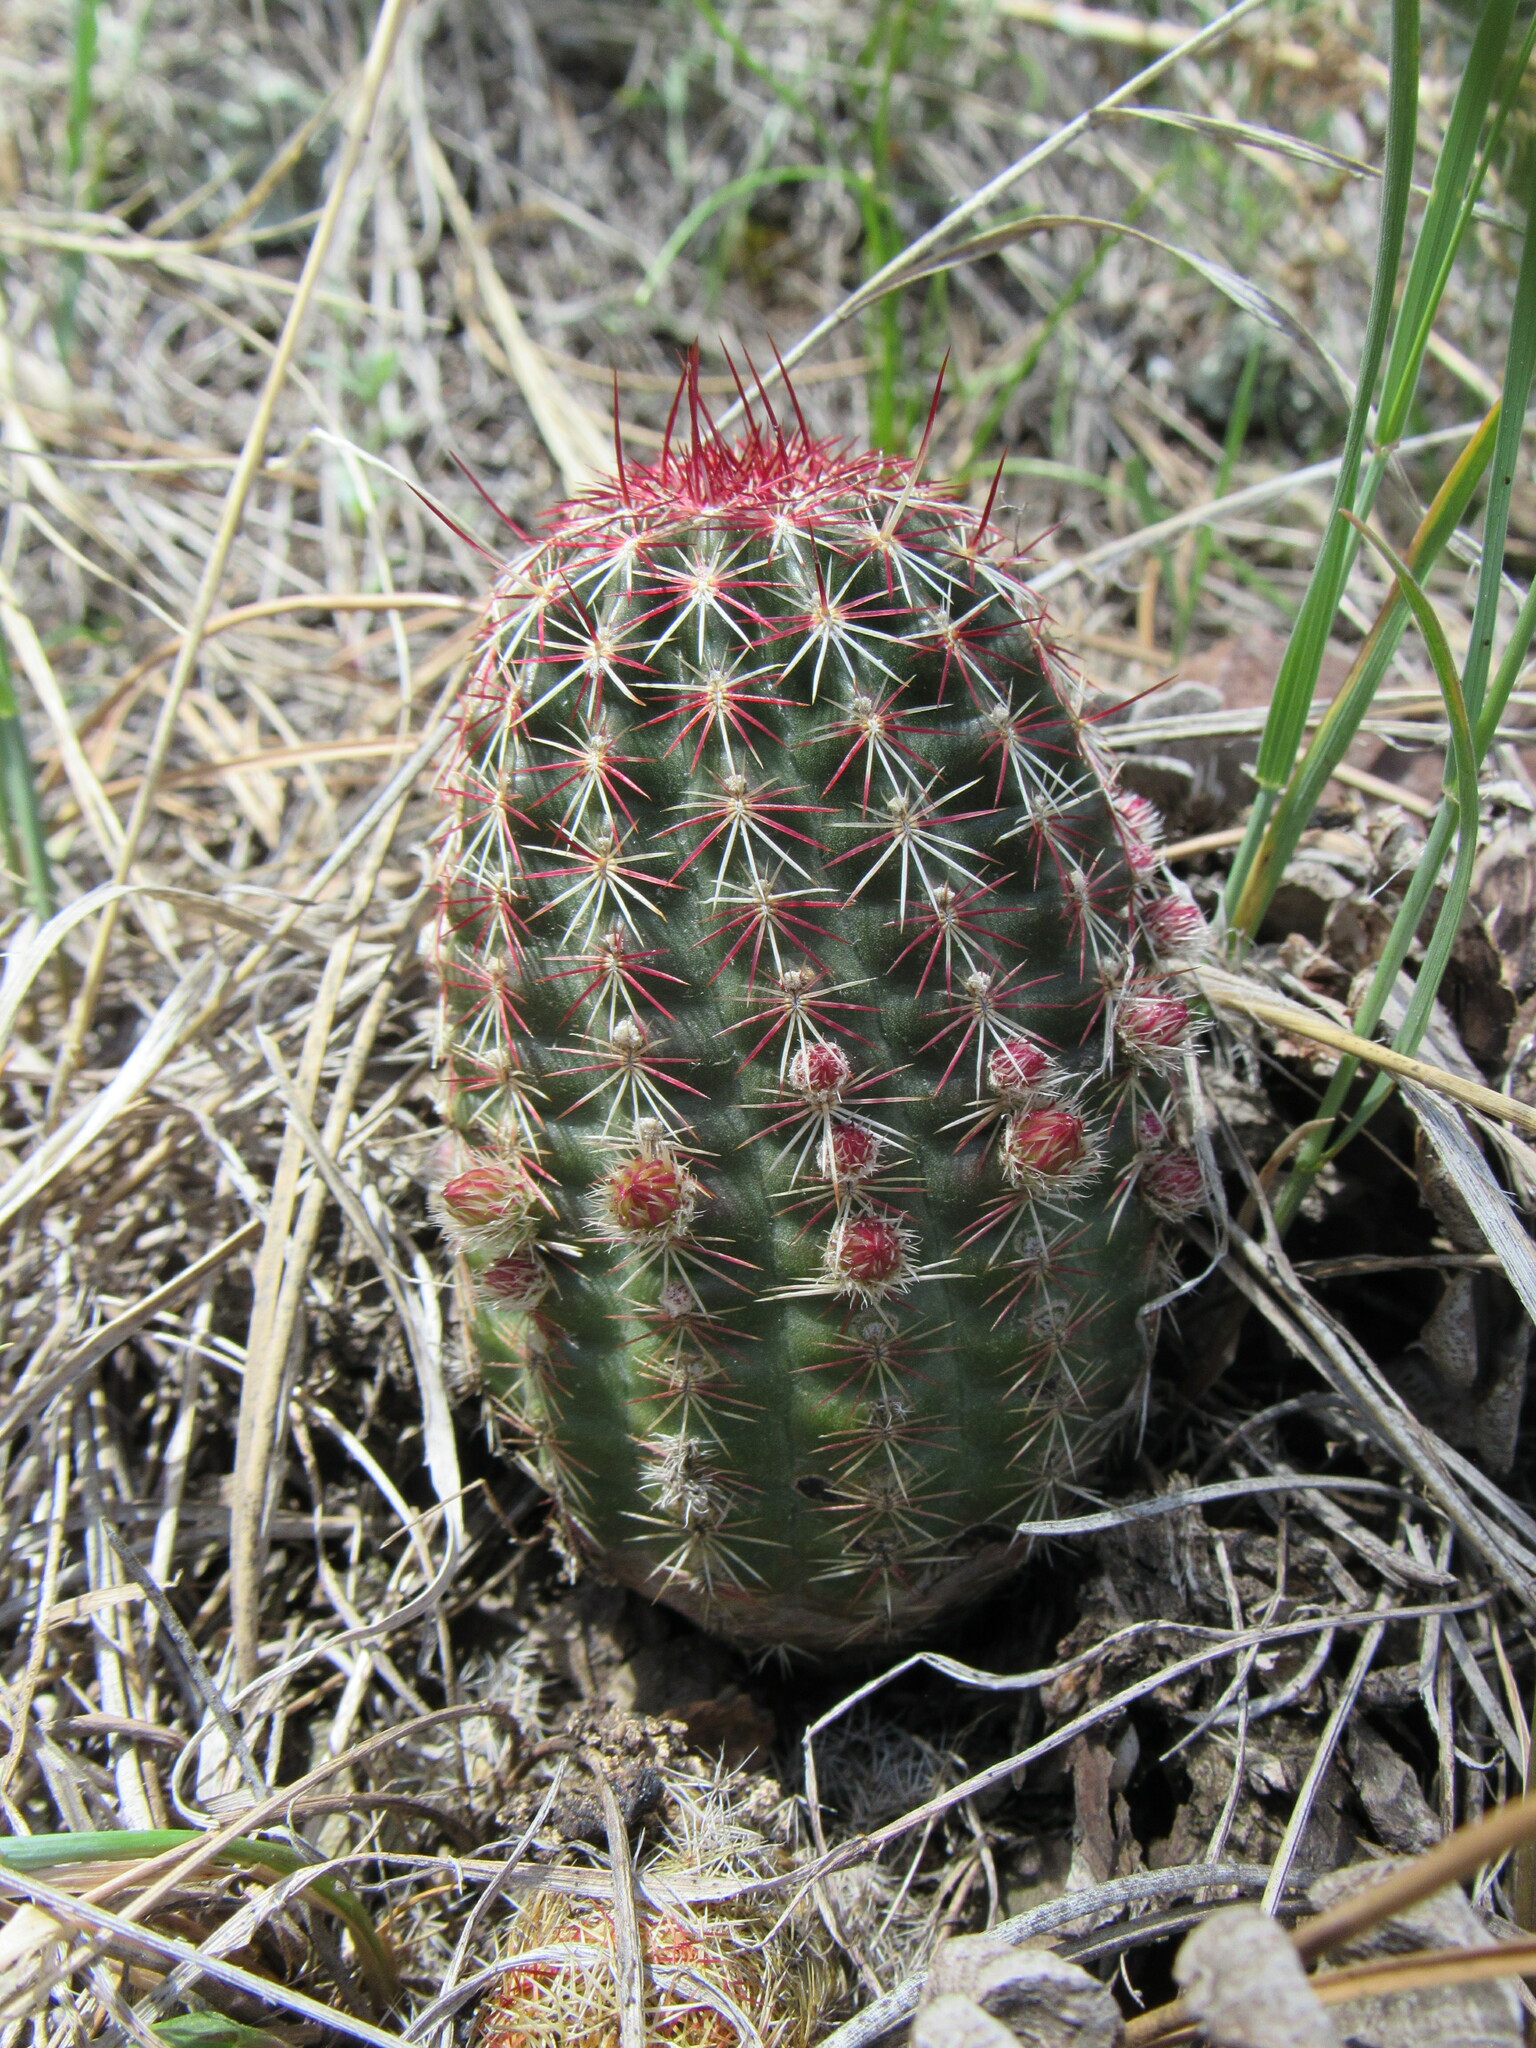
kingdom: Plantae
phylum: Tracheophyta
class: Magnoliopsida
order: Caryophyllales
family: Cactaceae
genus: Echinocereus
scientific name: Echinocereus viridiflorus
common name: Nylon hedgehog cactus
